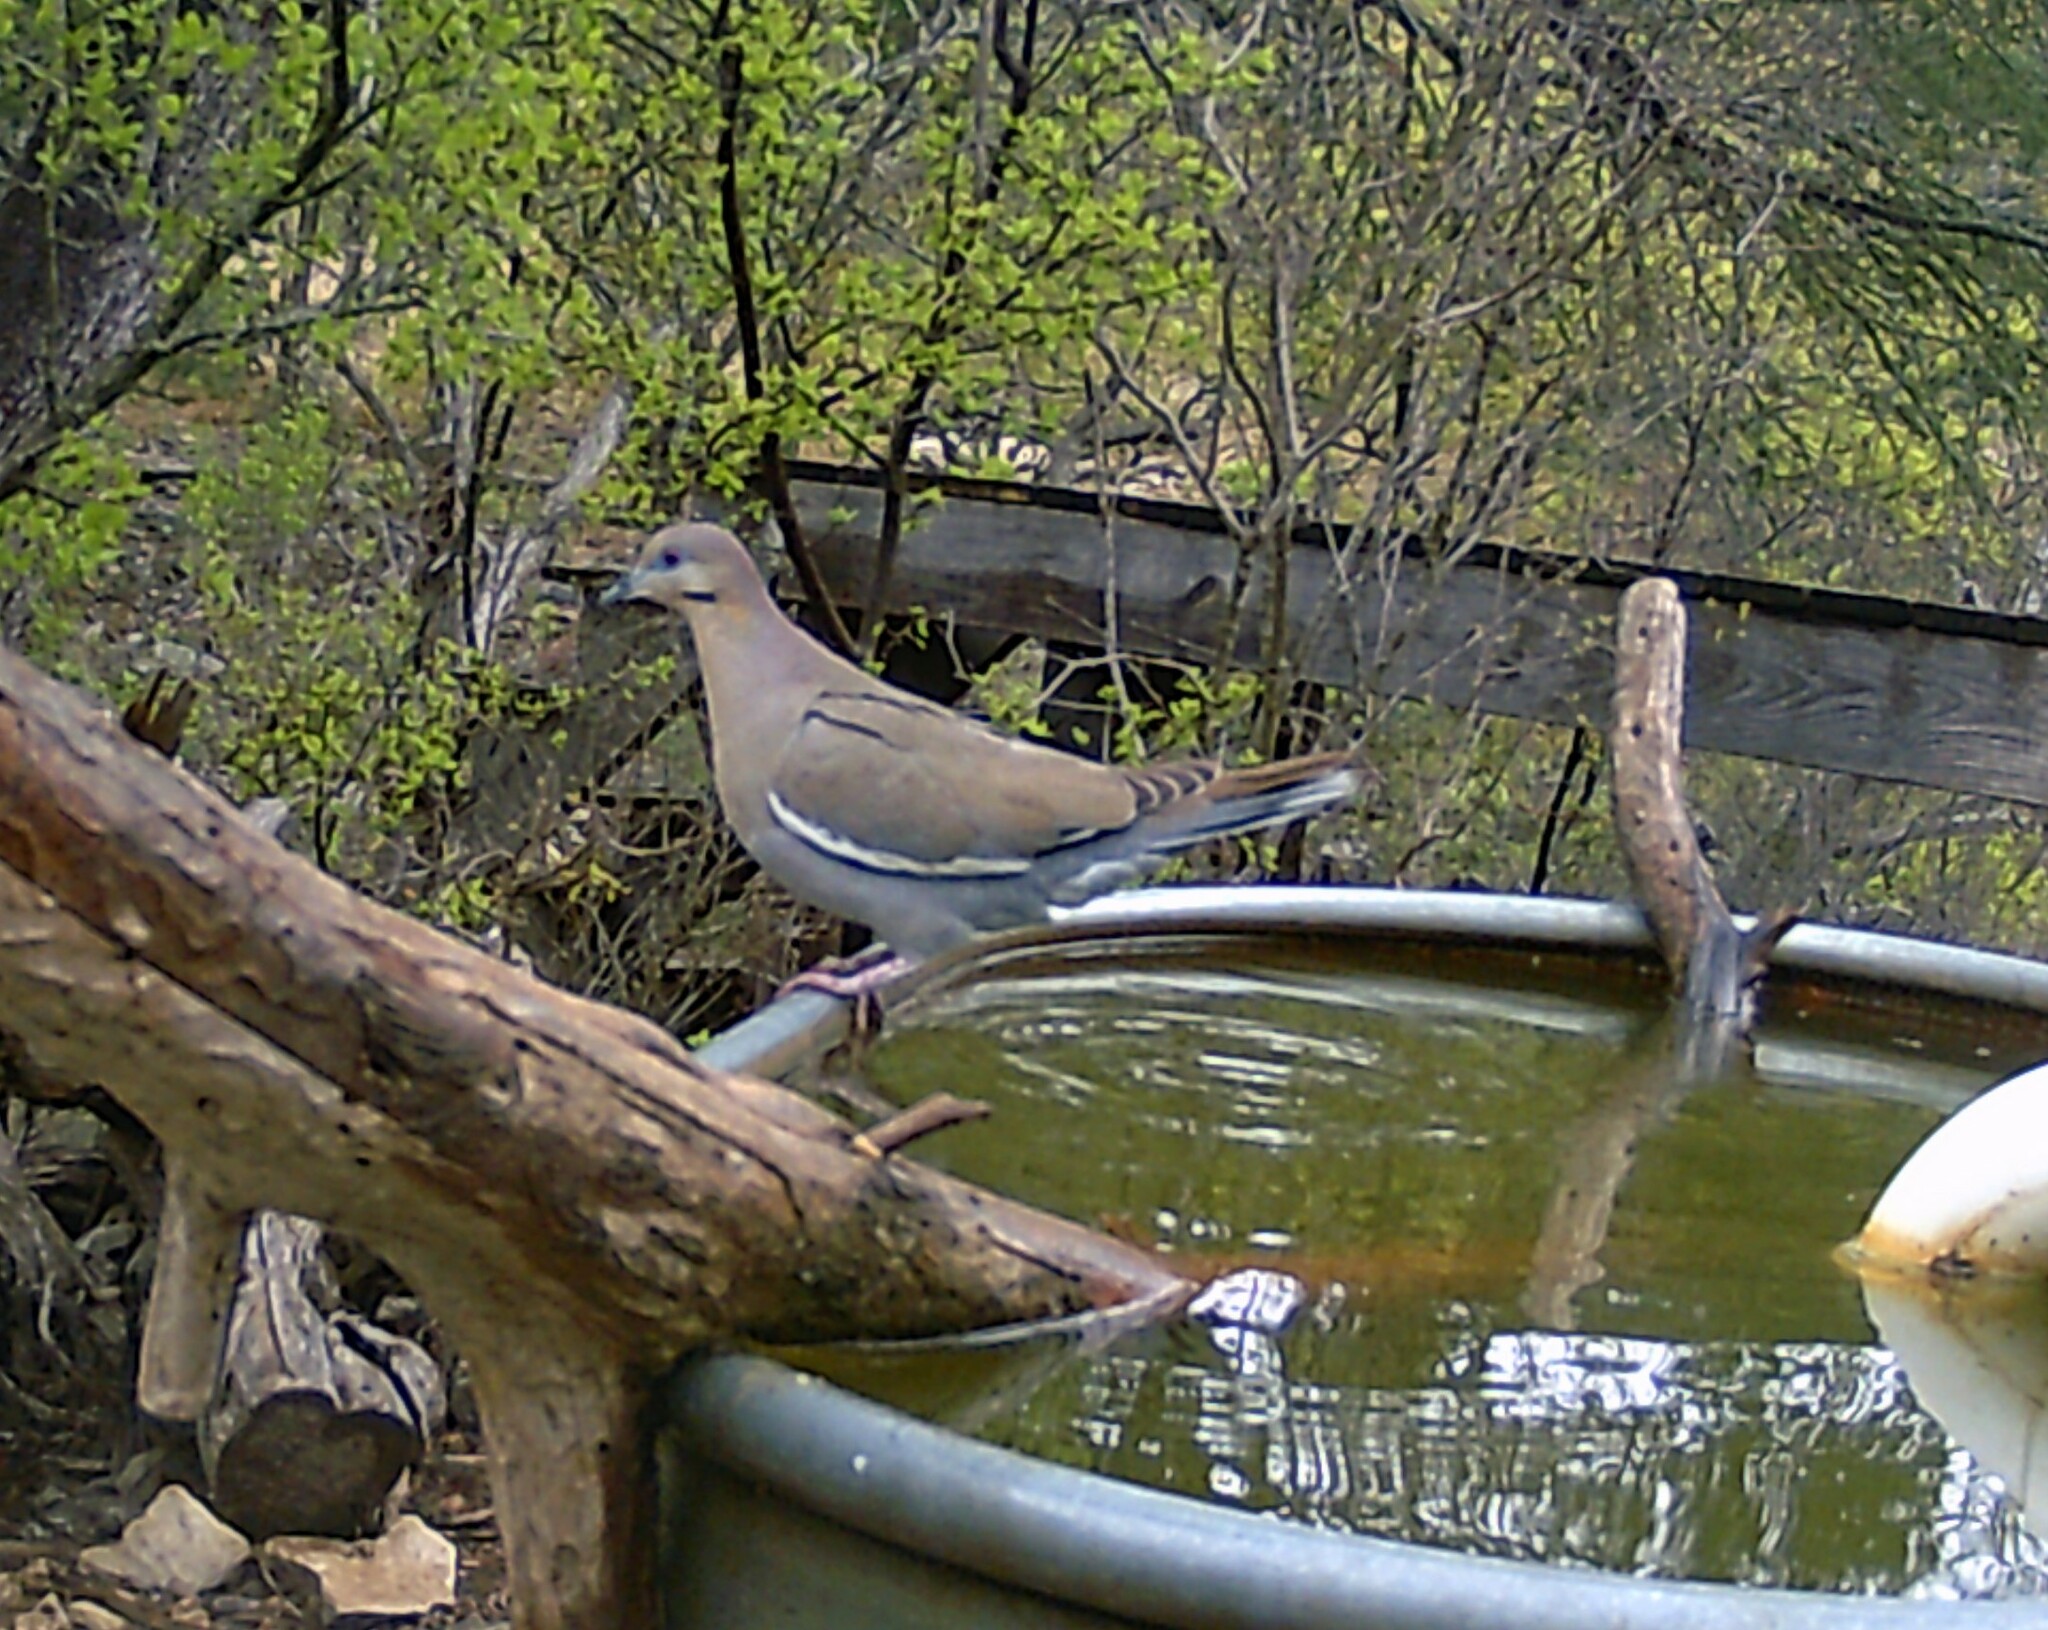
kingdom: Animalia
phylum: Chordata
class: Aves
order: Columbiformes
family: Columbidae
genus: Zenaida
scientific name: Zenaida asiatica
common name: White-winged dove
